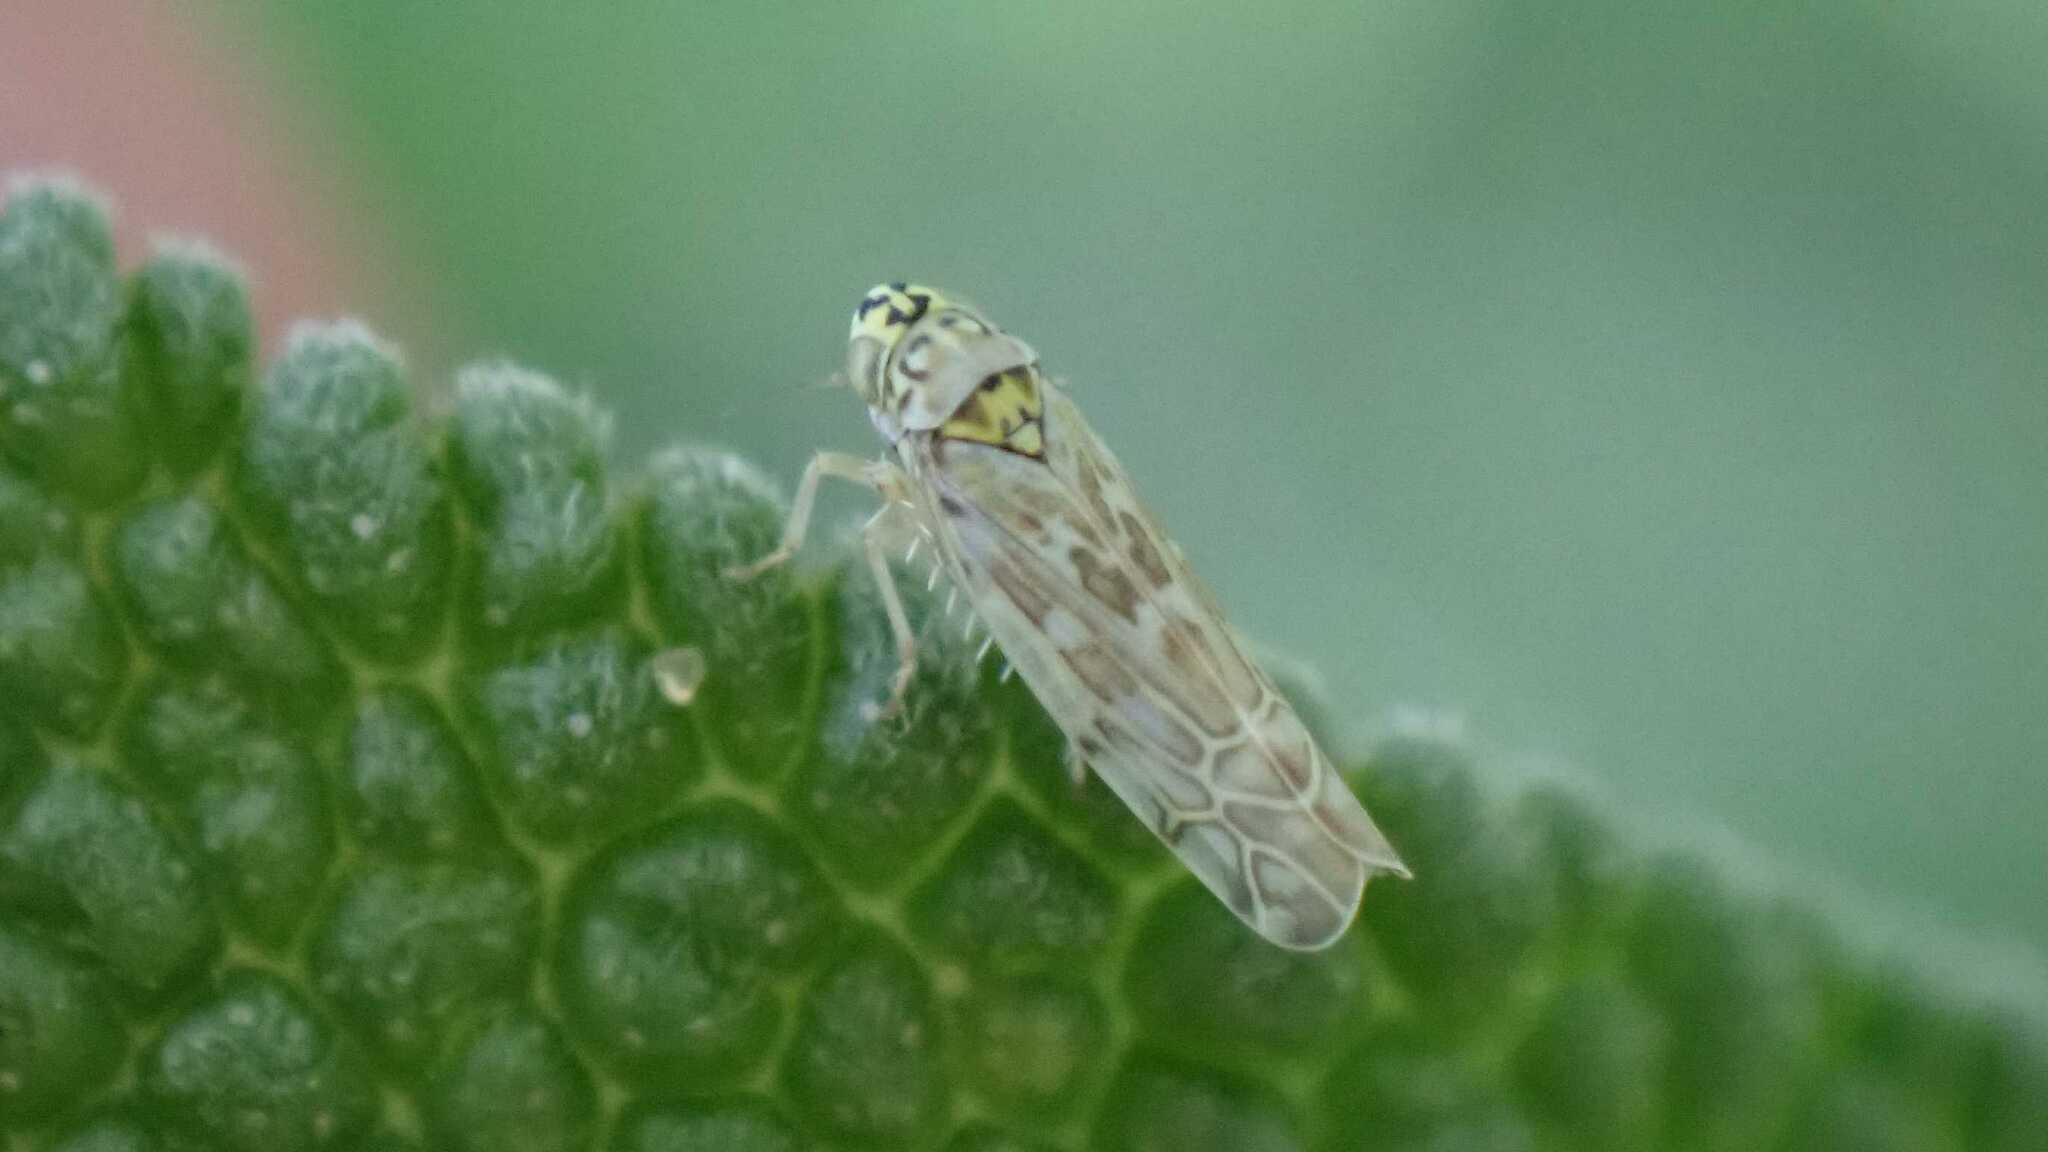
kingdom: Animalia
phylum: Arthropoda
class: Insecta
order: Hemiptera
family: Cicadellidae
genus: Eupteryx
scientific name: Eupteryx decemnotata
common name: Ligurian leafhopper
